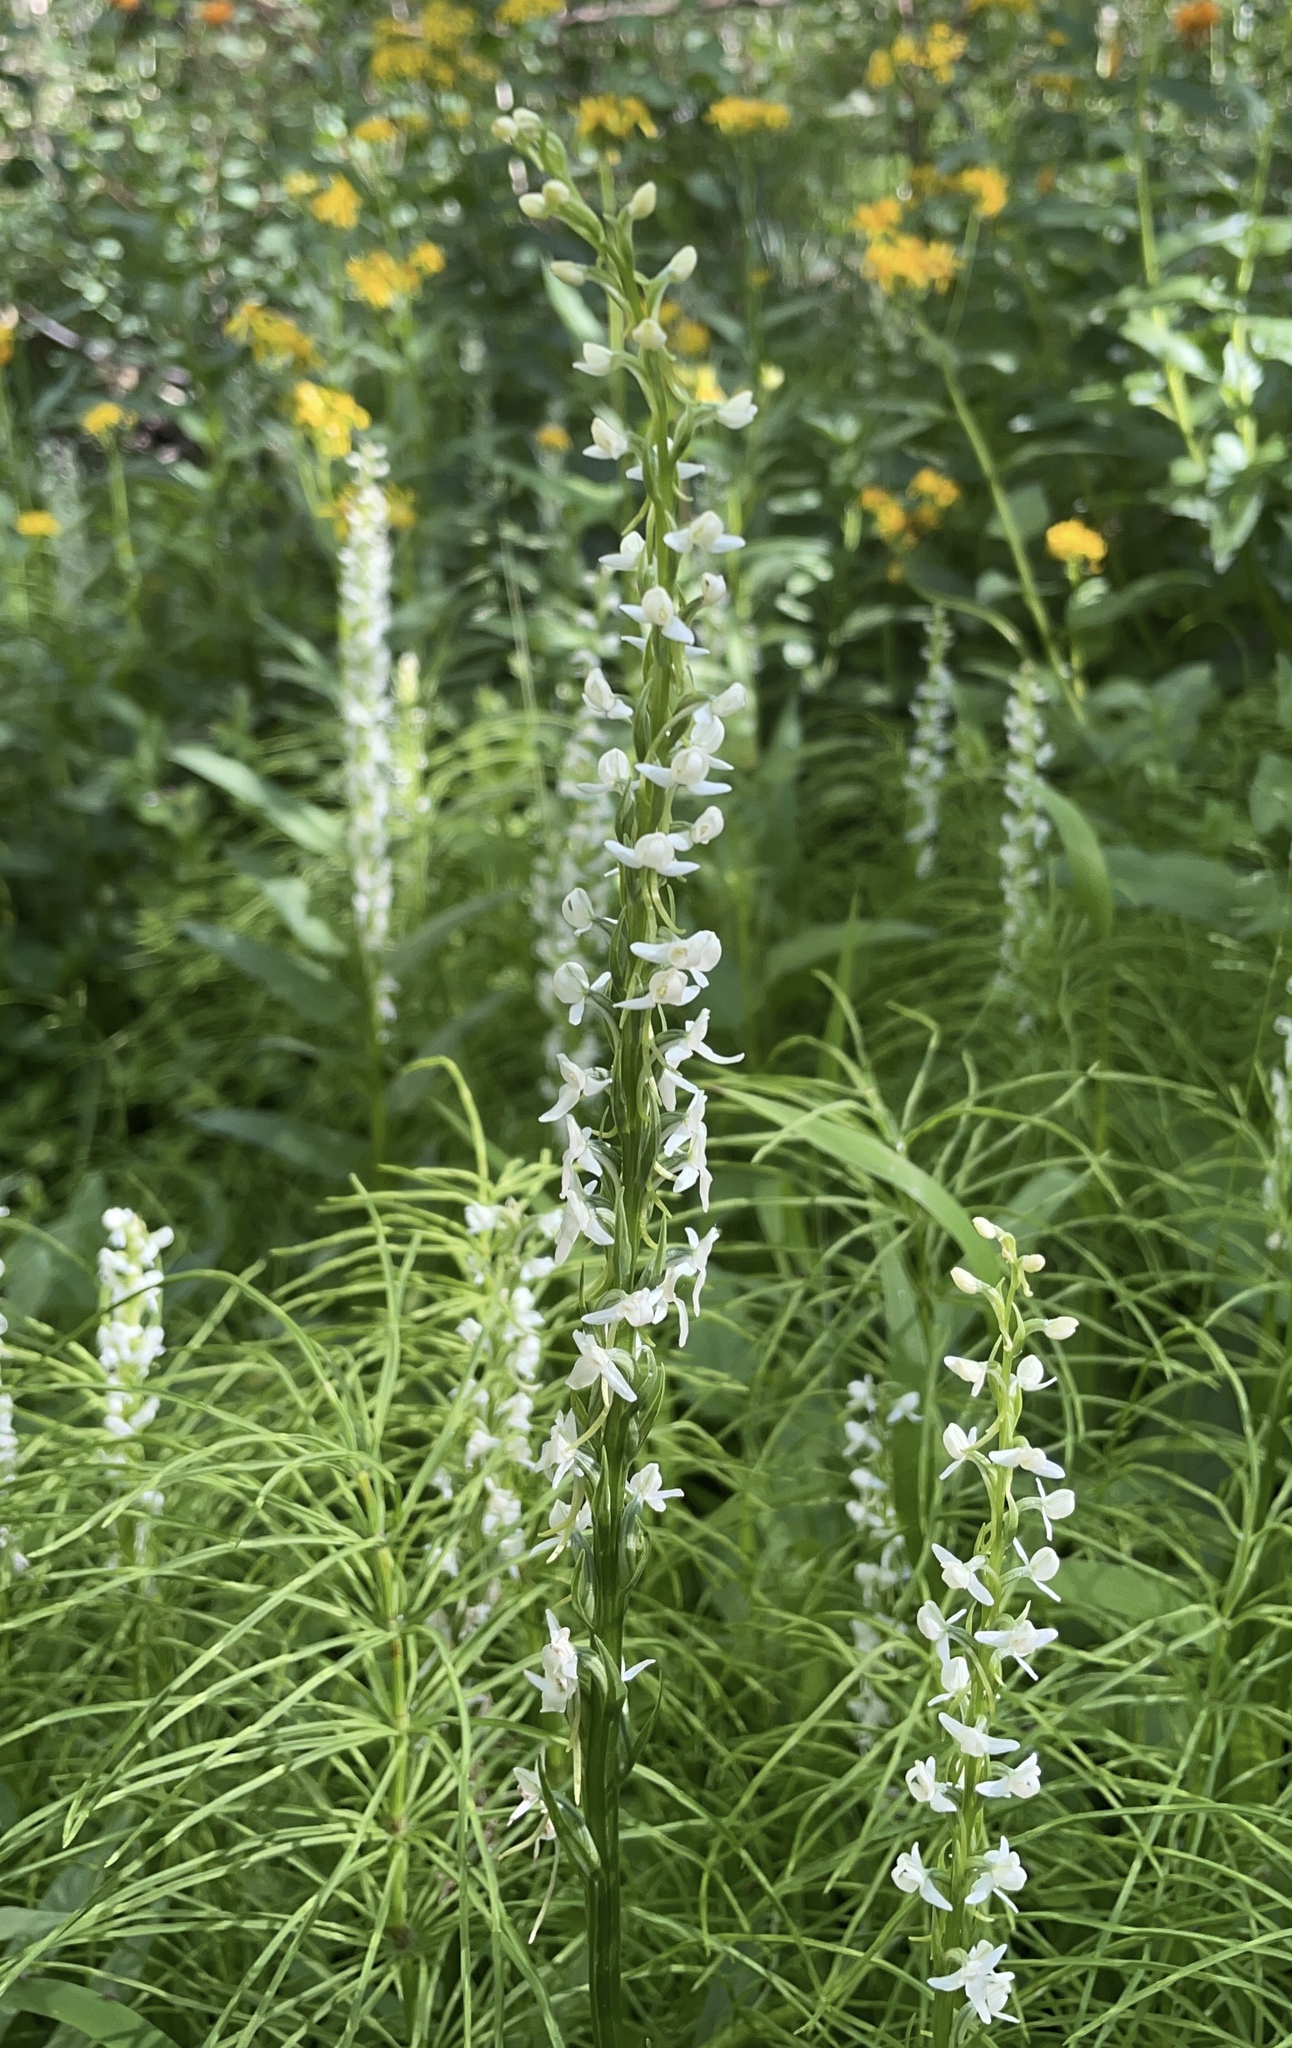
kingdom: Plantae
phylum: Tracheophyta
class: Liliopsida
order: Asparagales
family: Orchidaceae
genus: Platanthera
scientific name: Platanthera dilatata
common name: Bog candles
